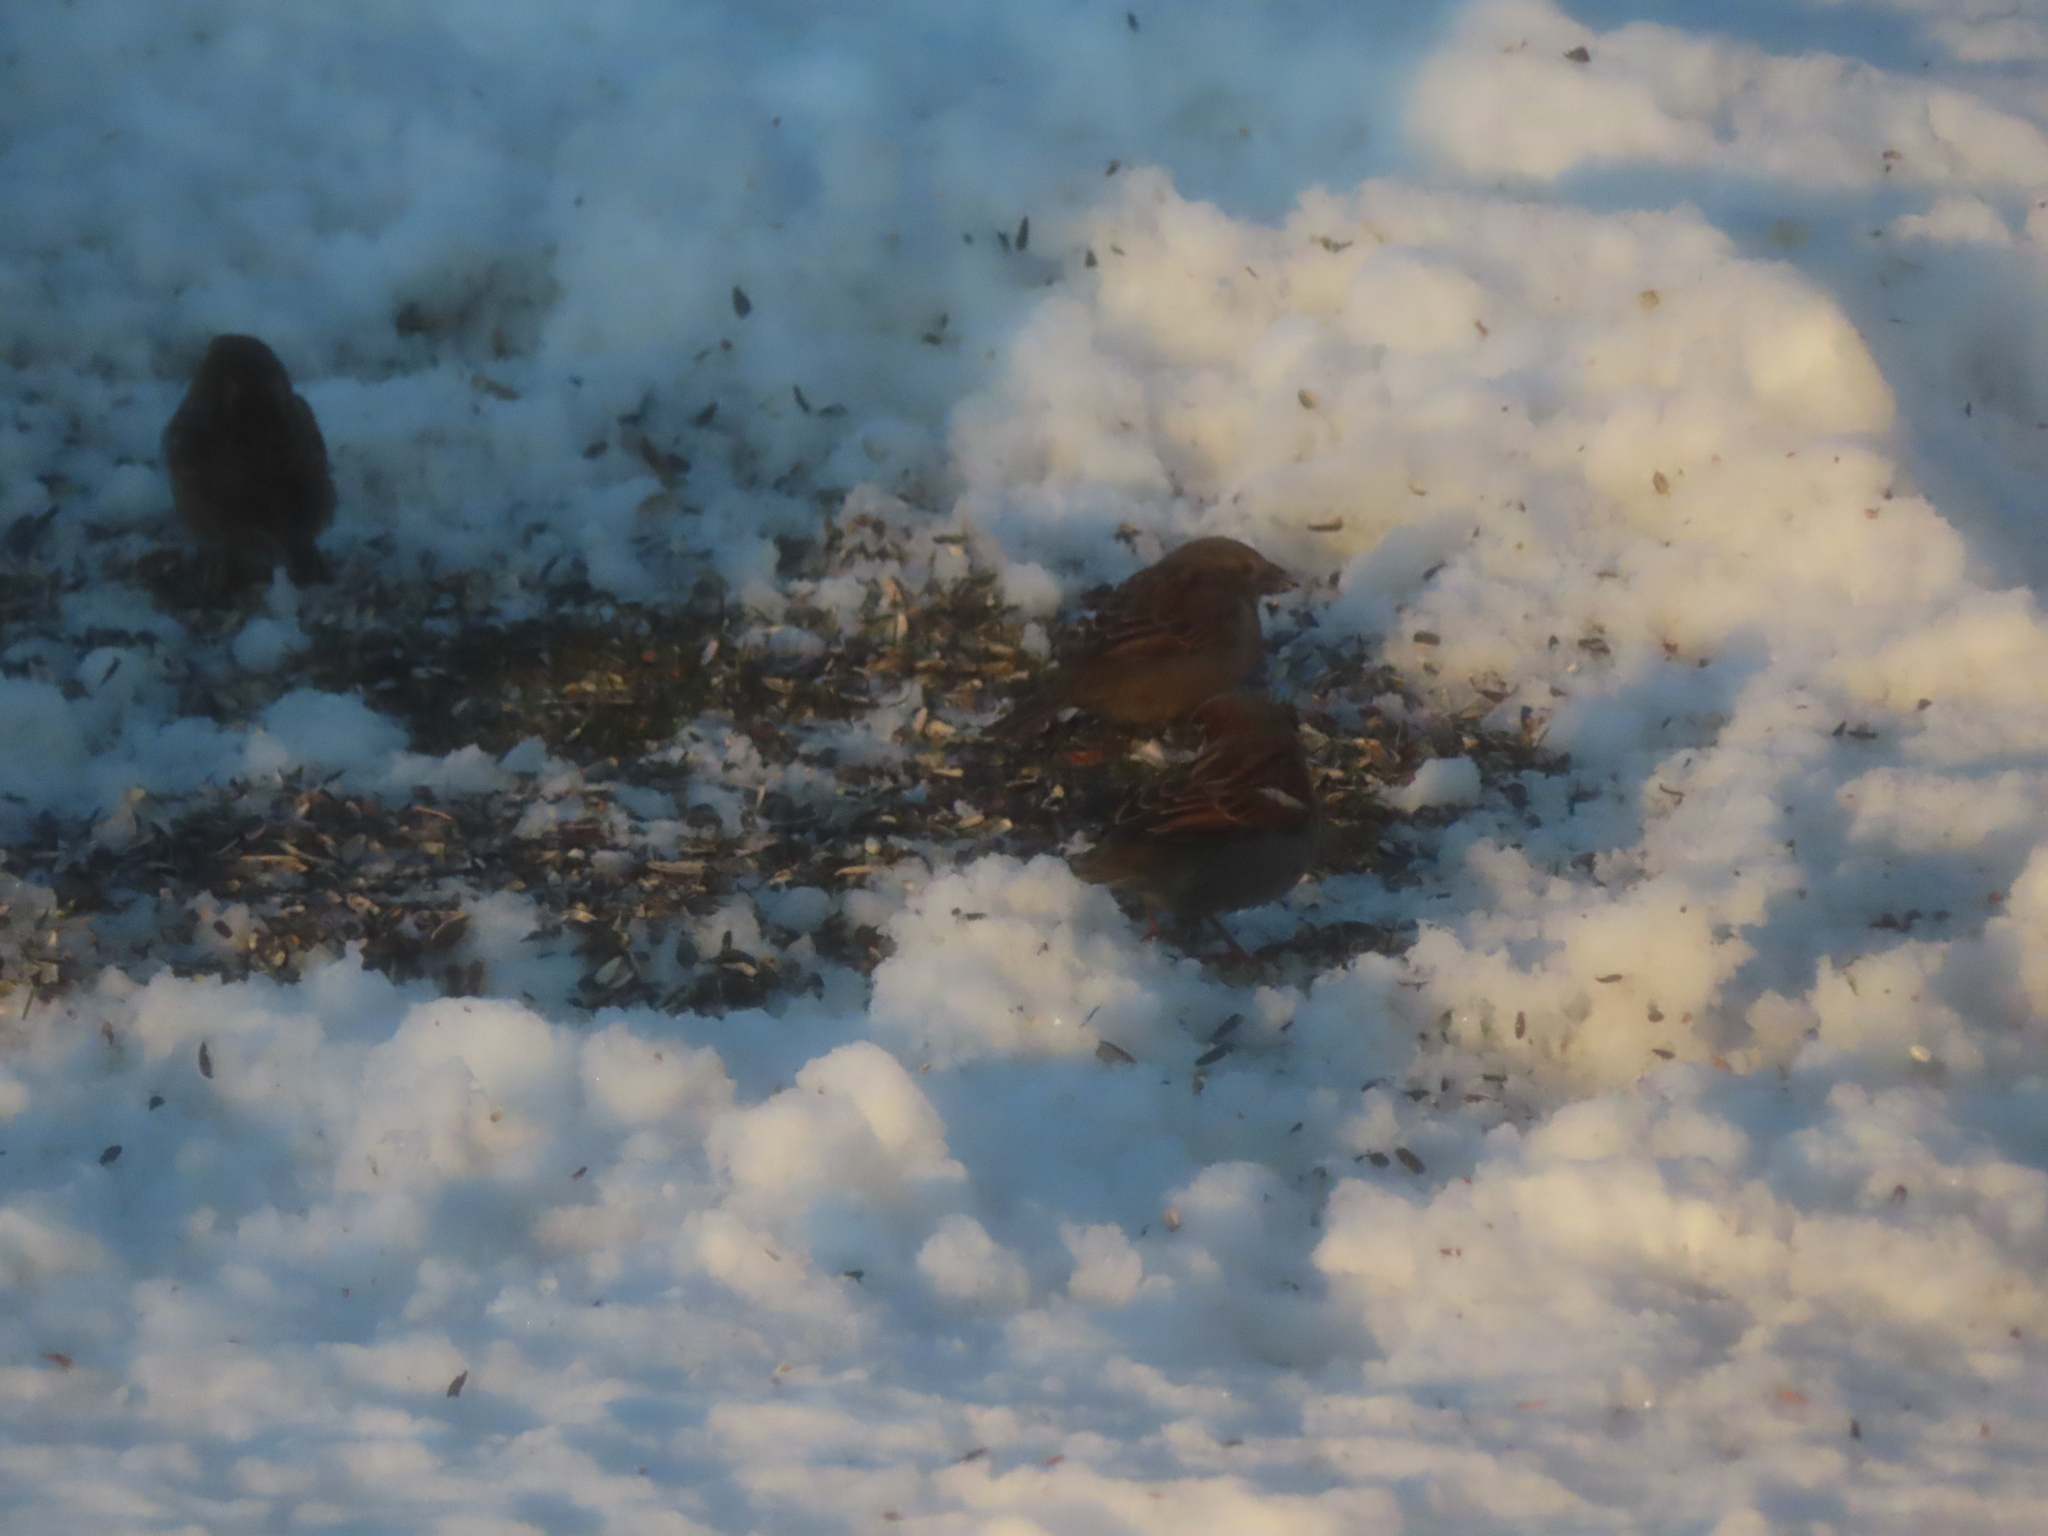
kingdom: Animalia
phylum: Chordata
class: Aves
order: Passeriformes
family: Passeridae
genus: Passer
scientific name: Passer domesticus
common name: House sparrow
